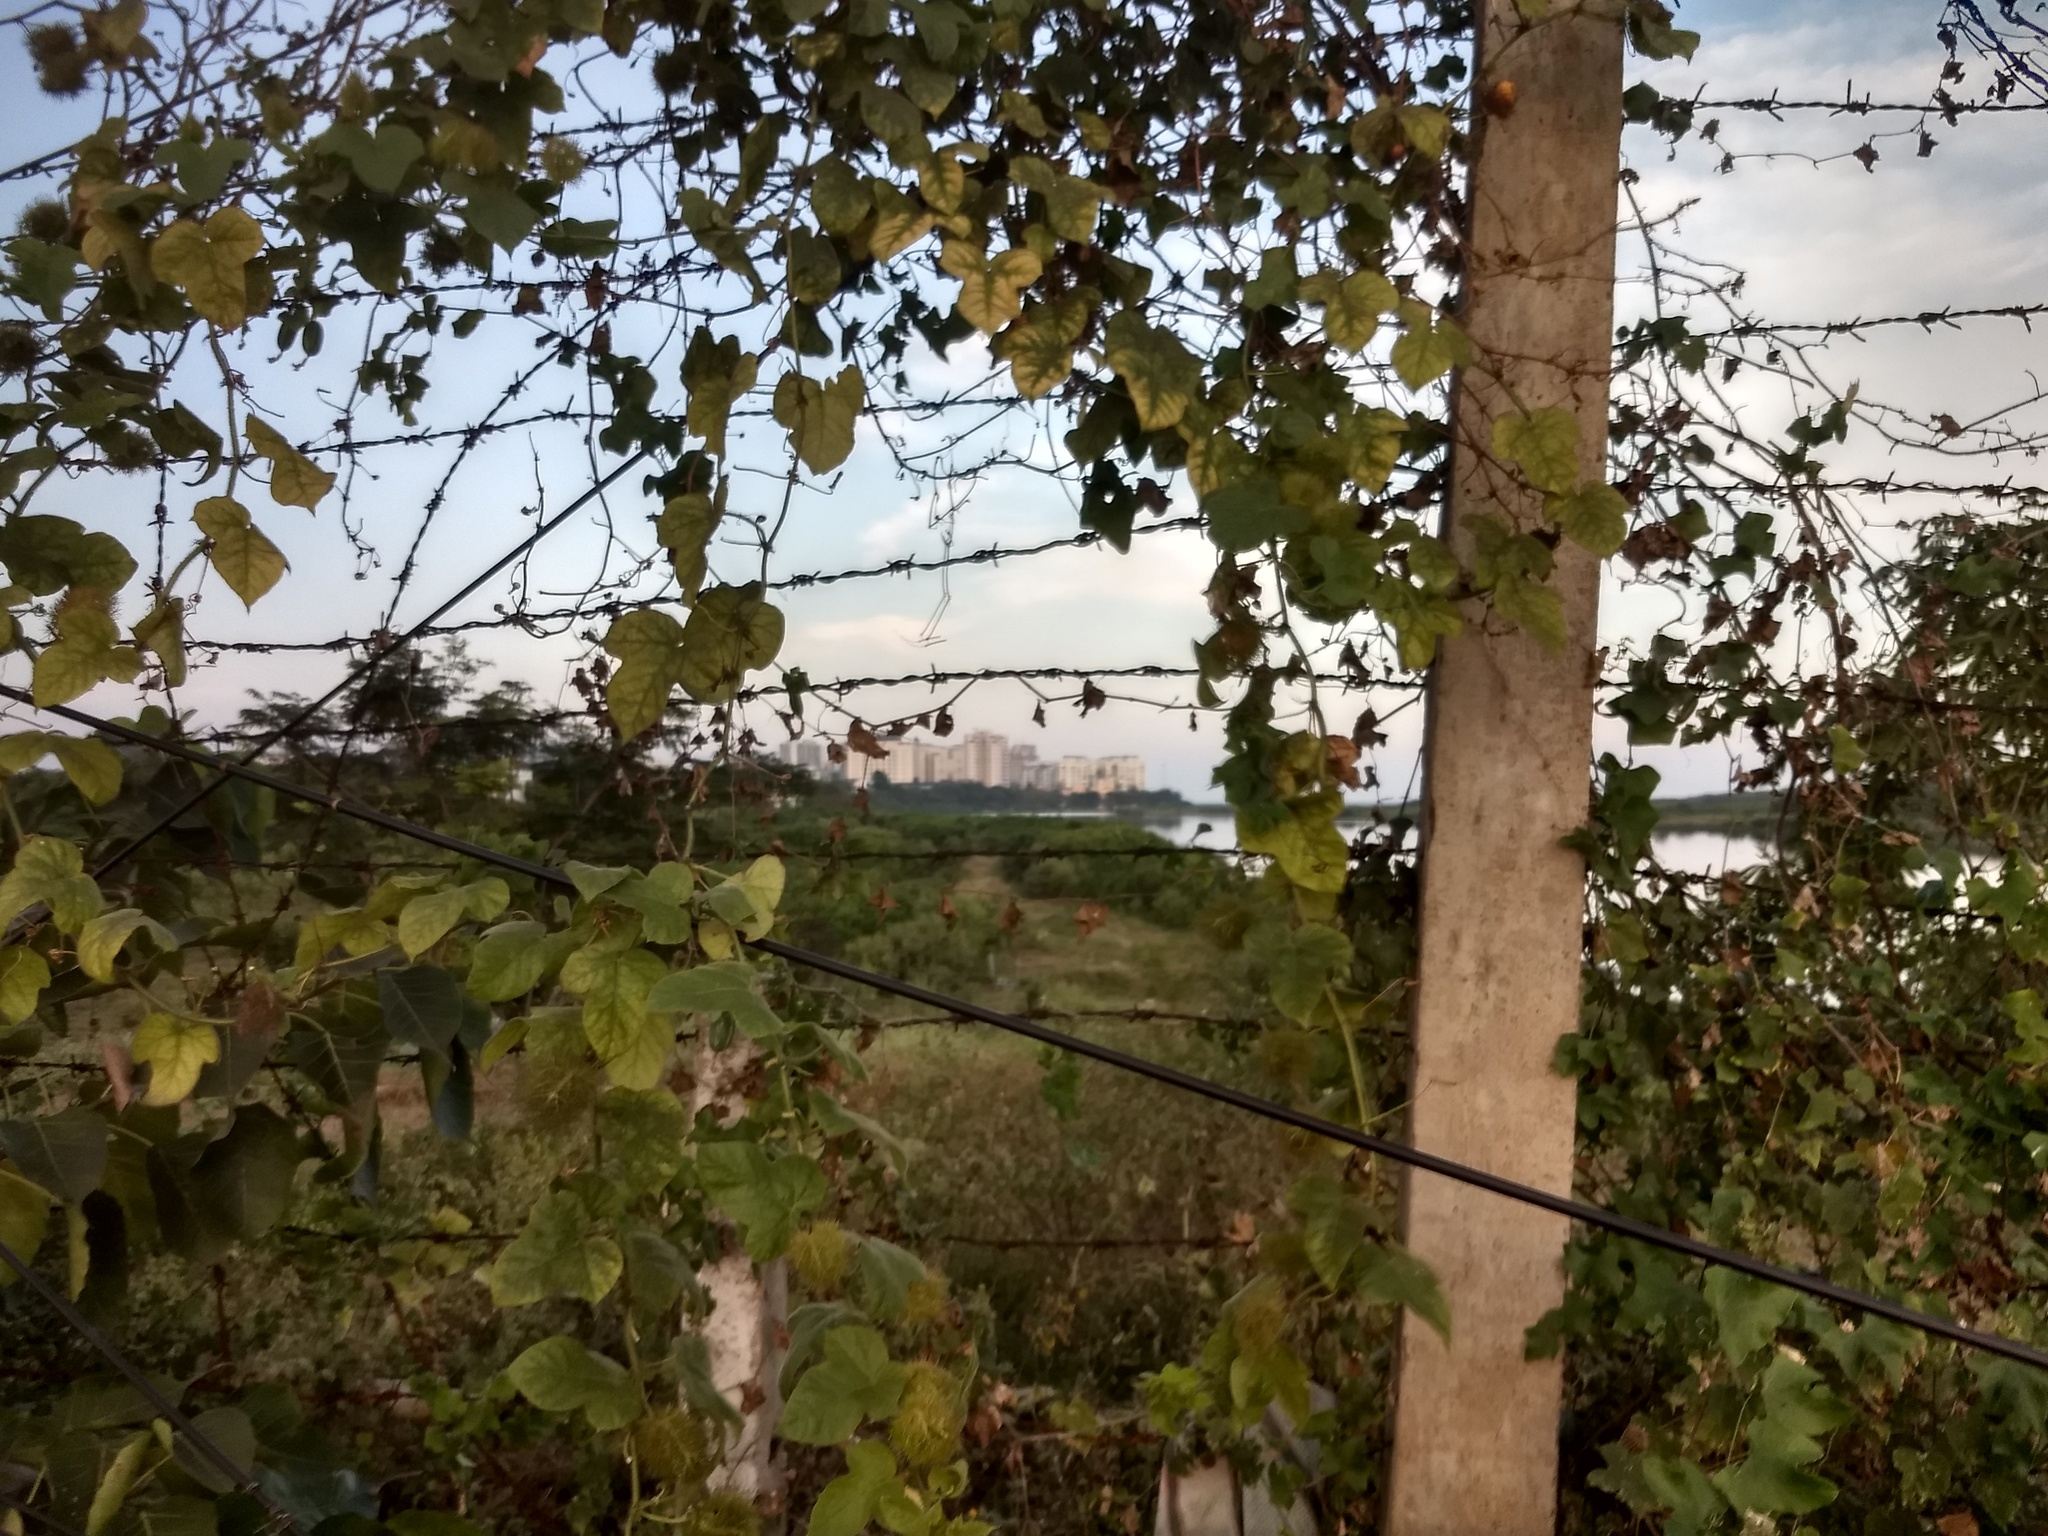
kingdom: Plantae
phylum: Tracheophyta
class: Magnoliopsida
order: Malpighiales
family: Passifloraceae
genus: Passiflora
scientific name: Passiflora foetida
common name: Fetid passionflower
